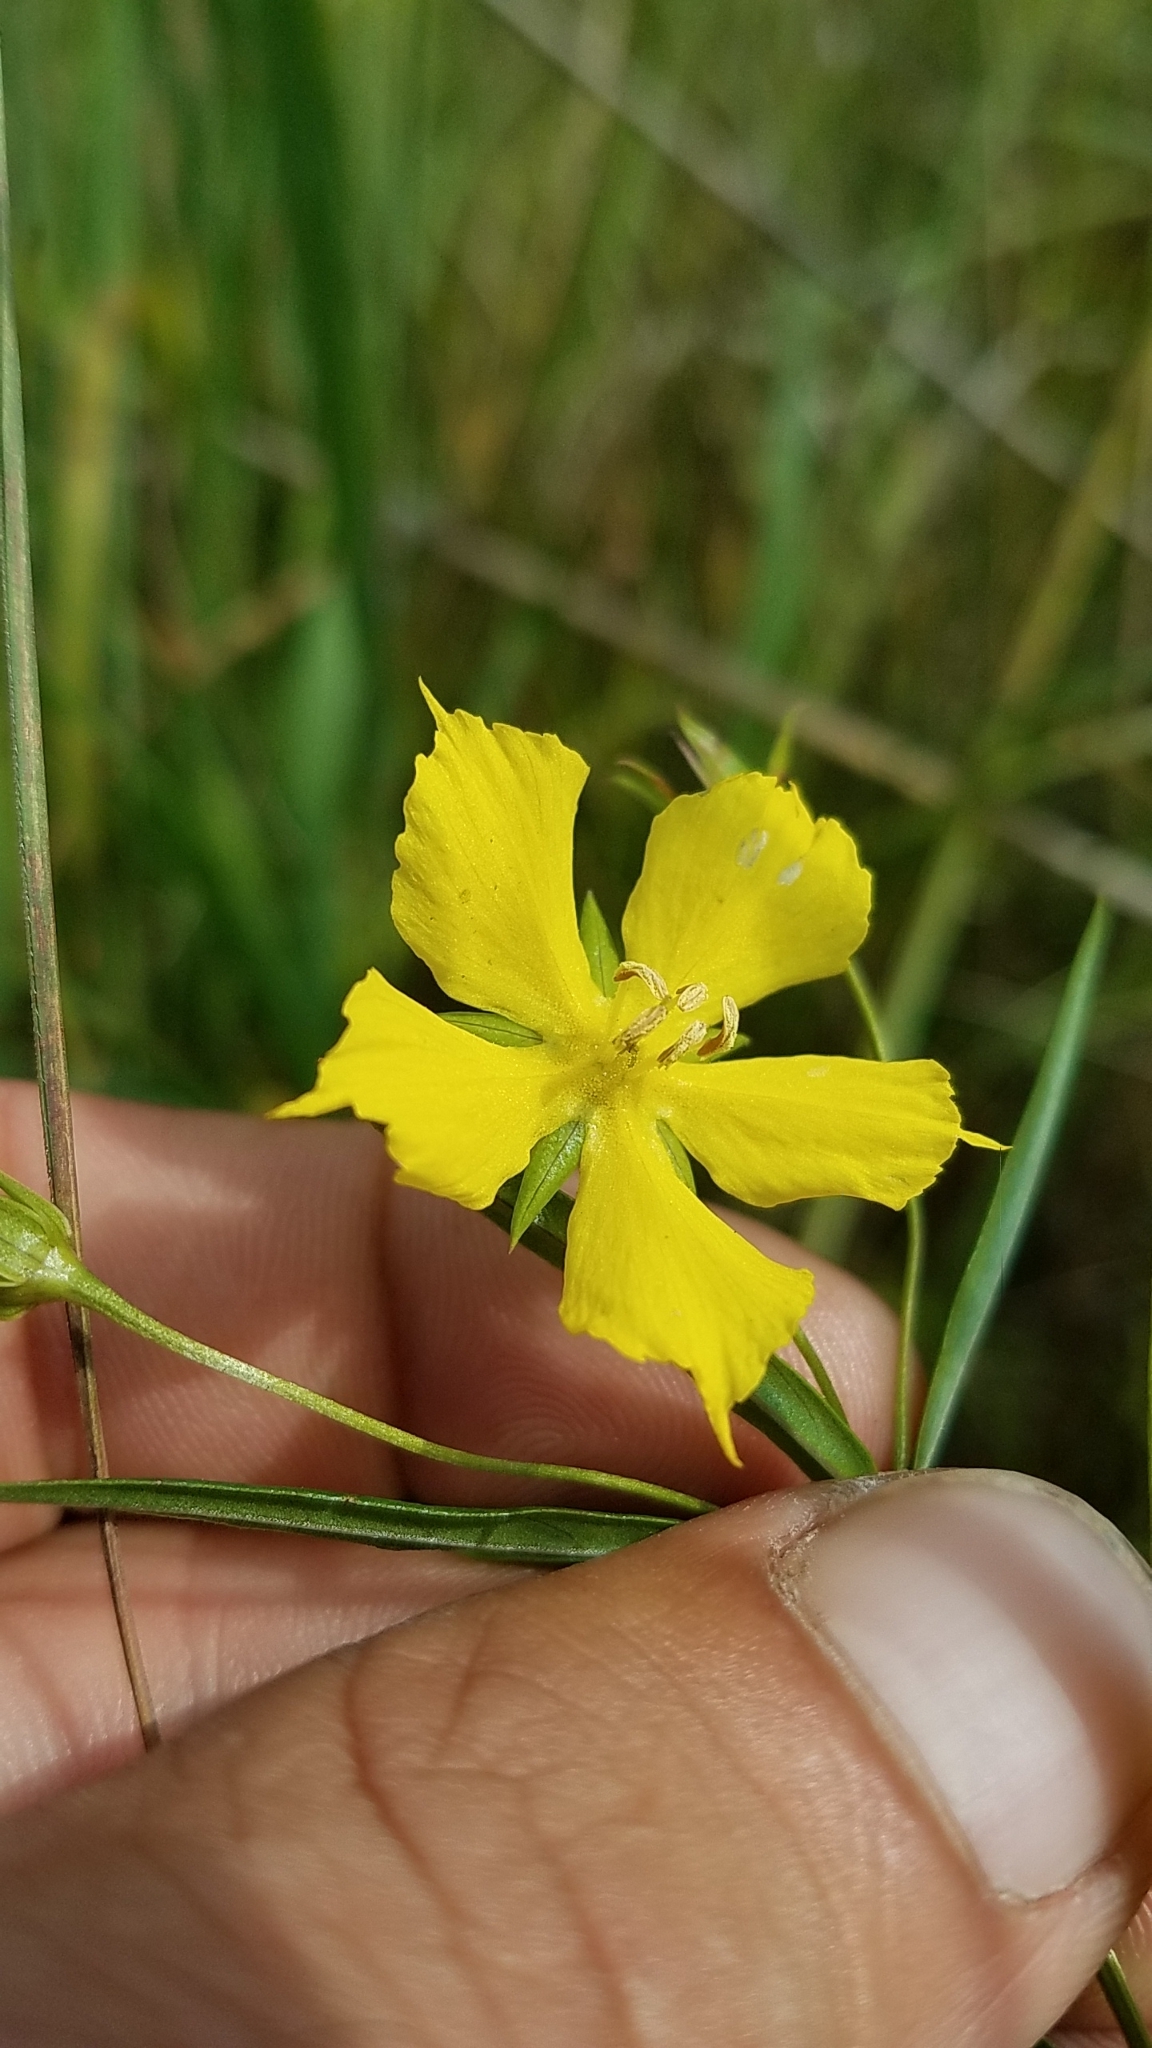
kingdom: Plantae
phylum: Tracheophyta
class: Magnoliopsida
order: Ericales
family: Primulaceae
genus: Lysimachia
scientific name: Lysimachia quadriflora
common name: Four-flowered loosestrife
